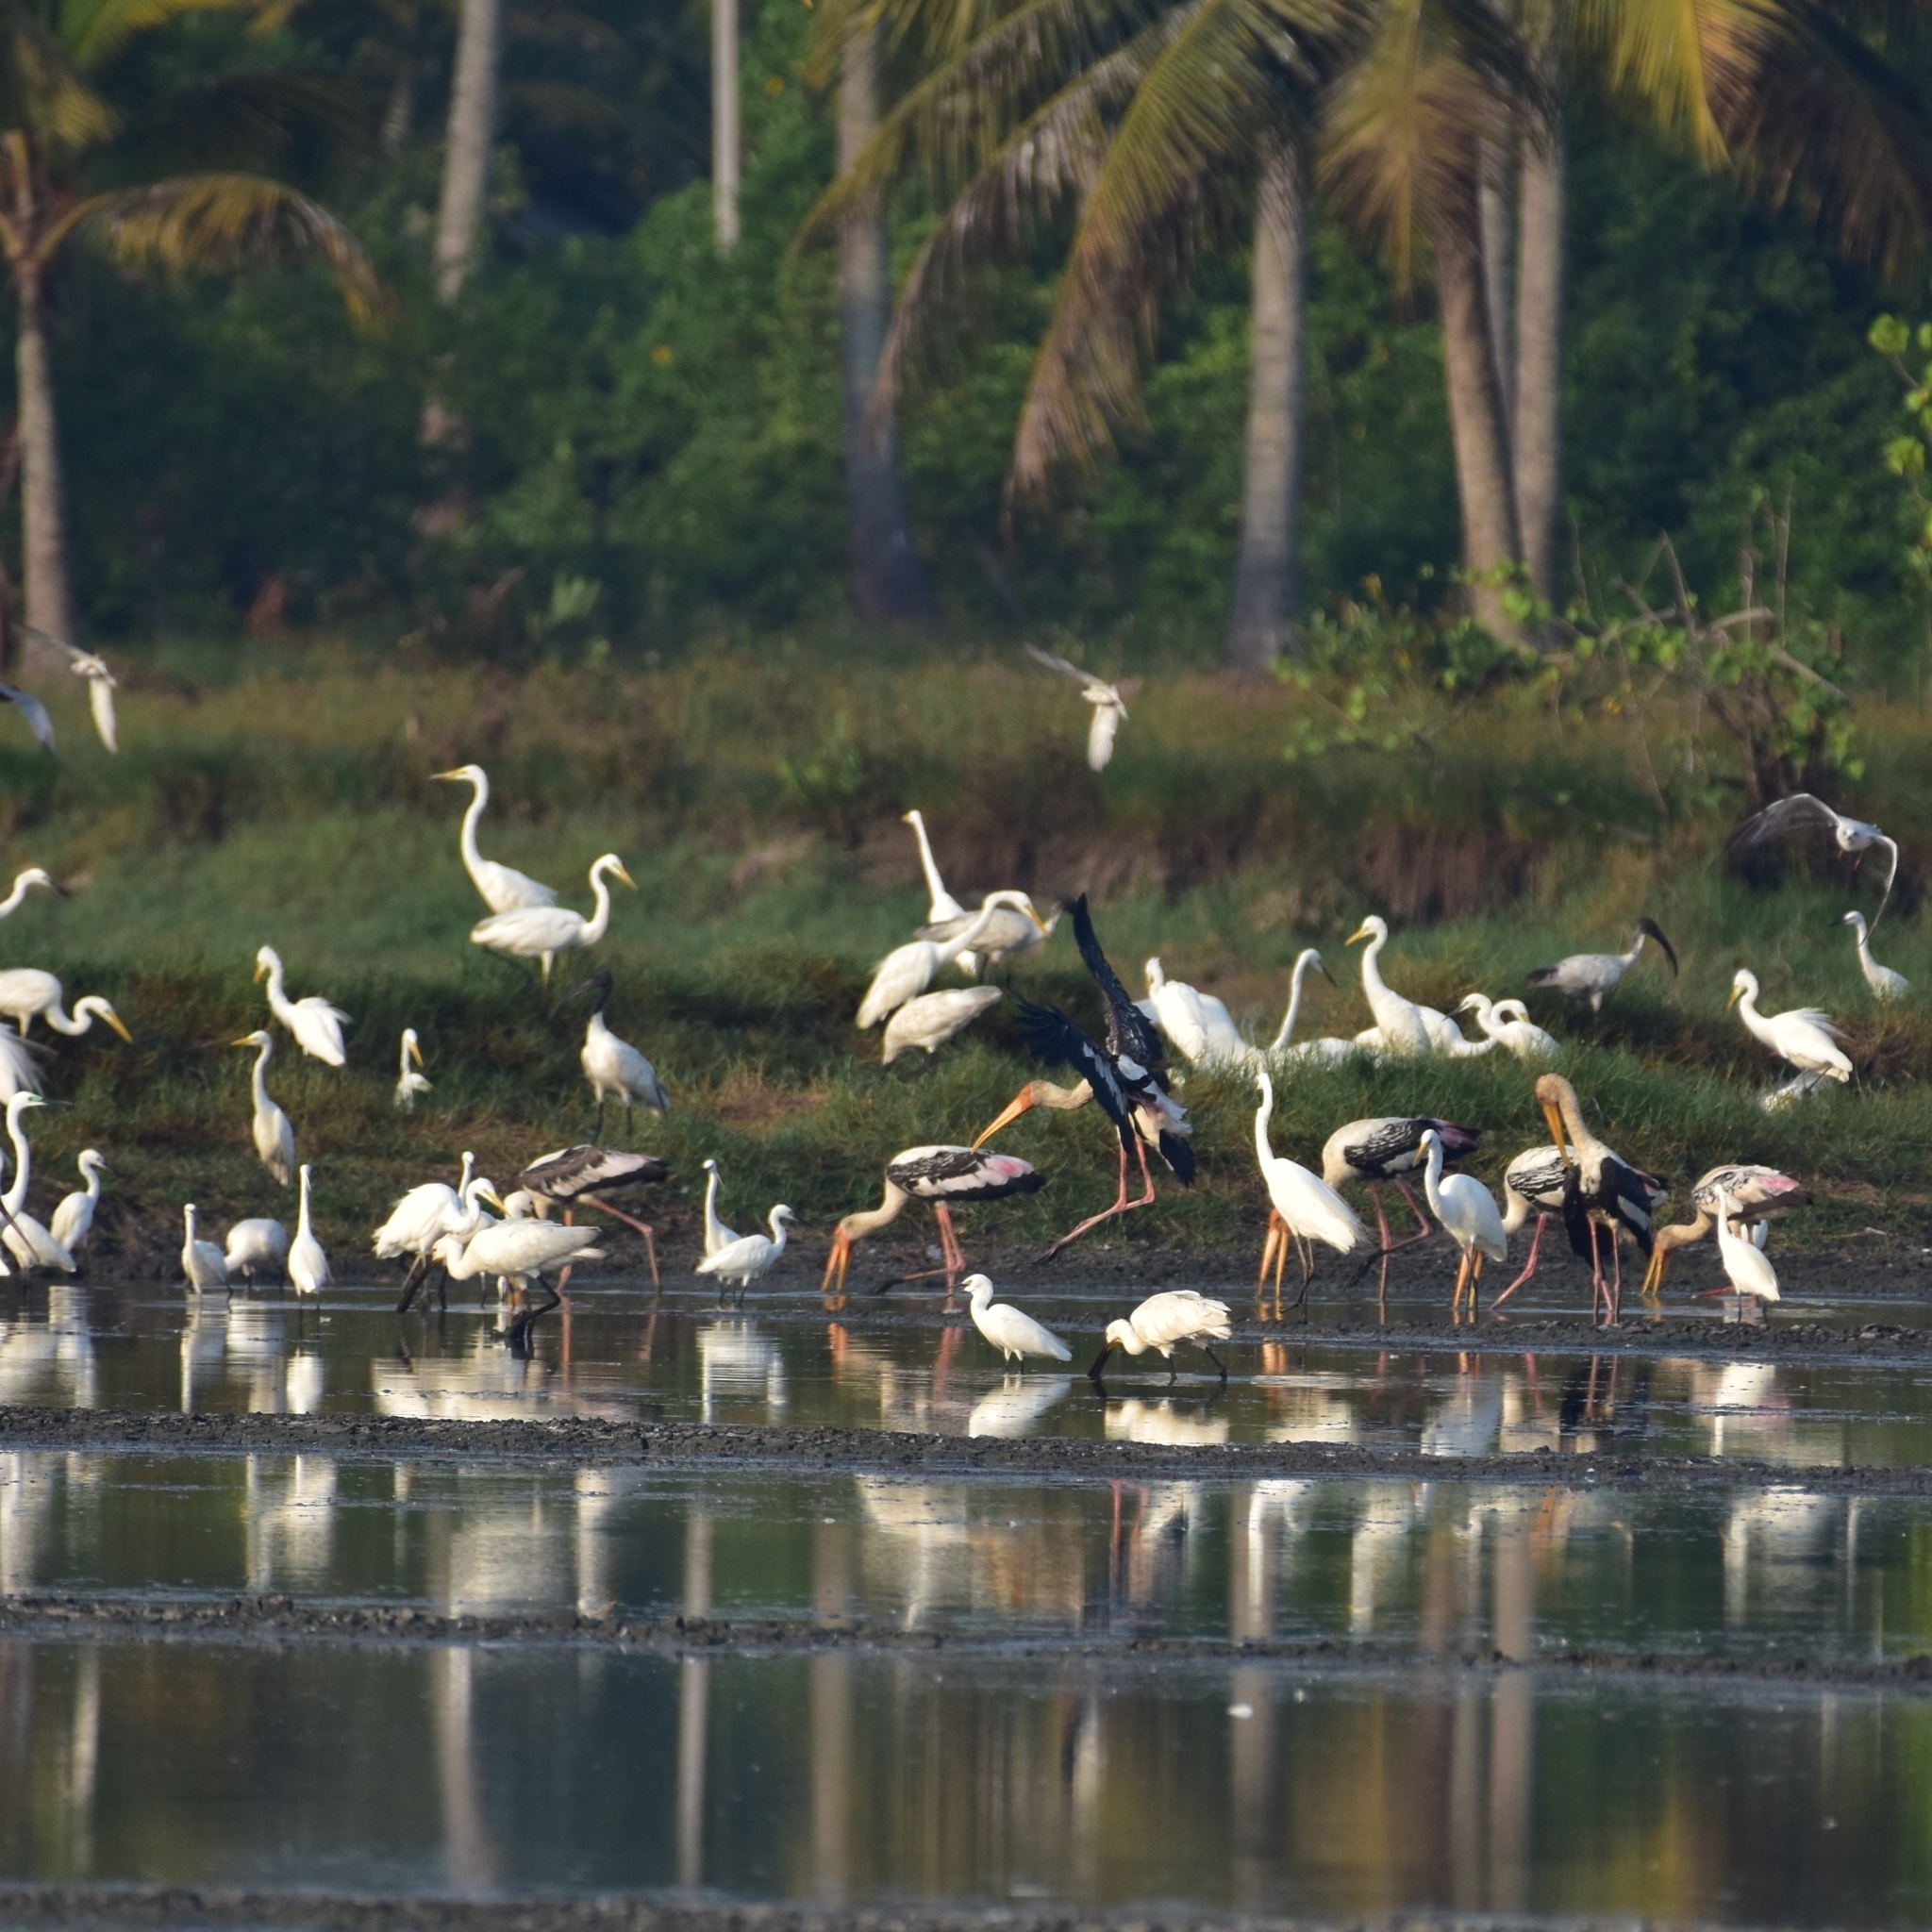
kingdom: Animalia
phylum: Chordata
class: Aves
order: Ciconiiformes
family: Ciconiidae
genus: Mycteria
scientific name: Mycteria leucocephala
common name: Painted stork
